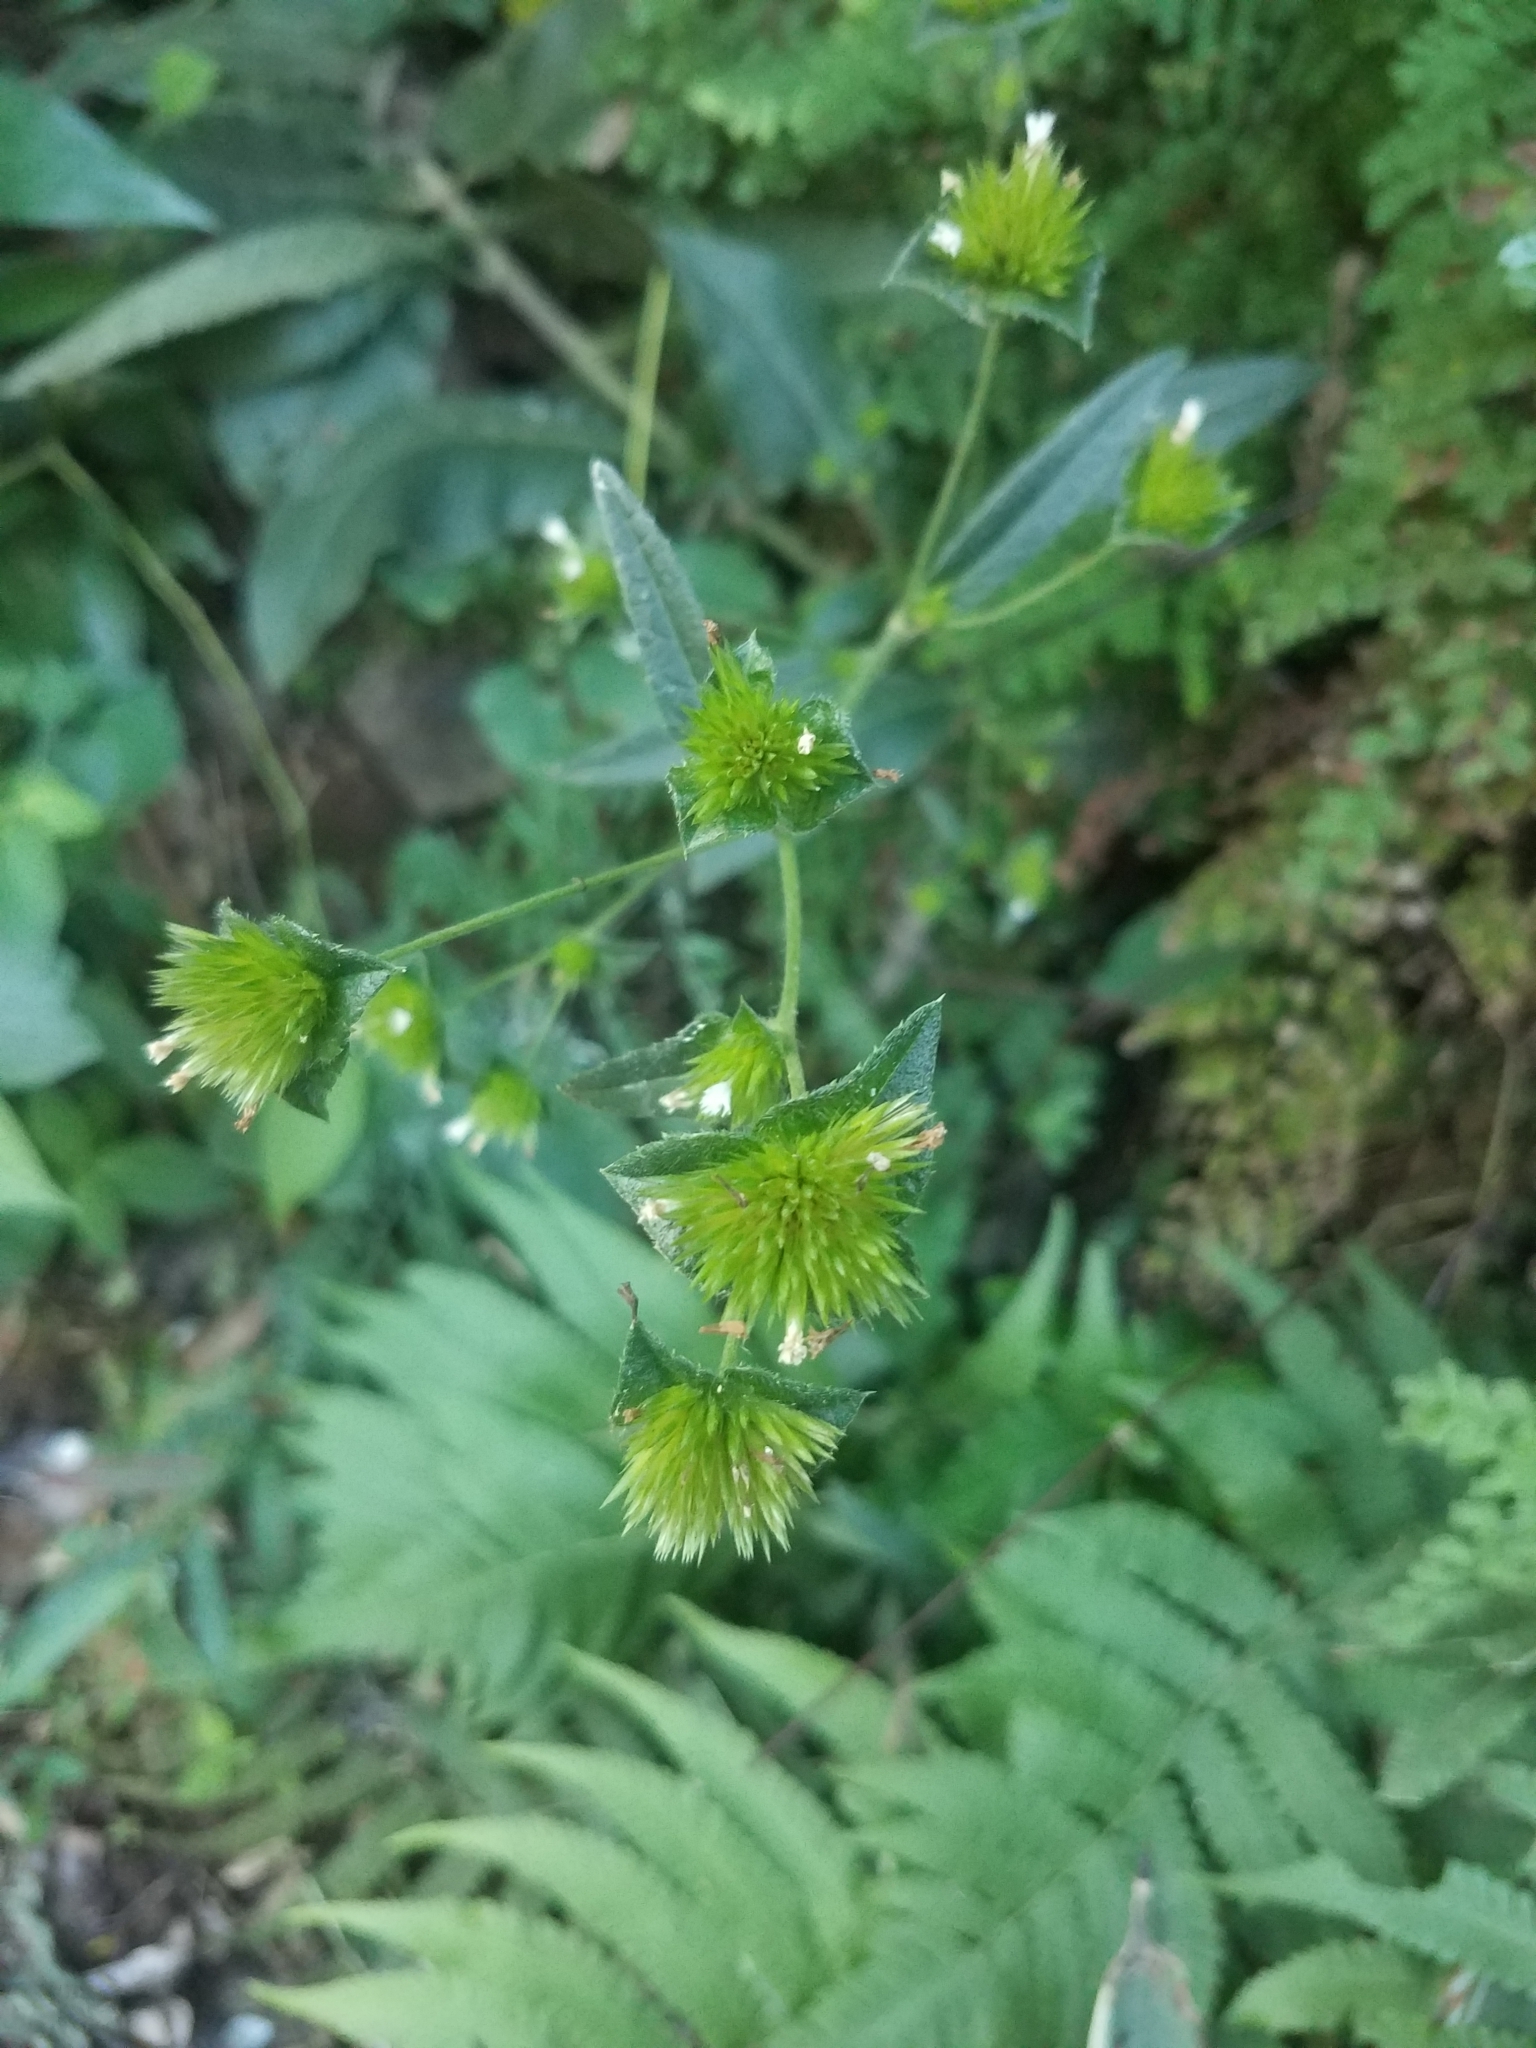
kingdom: Plantae
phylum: Tracheophyta
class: Magnoliopsida
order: Asterales
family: Asteraceae
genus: Elephantopus
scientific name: Elephantopus mollis
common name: Soft elephantsfoot
